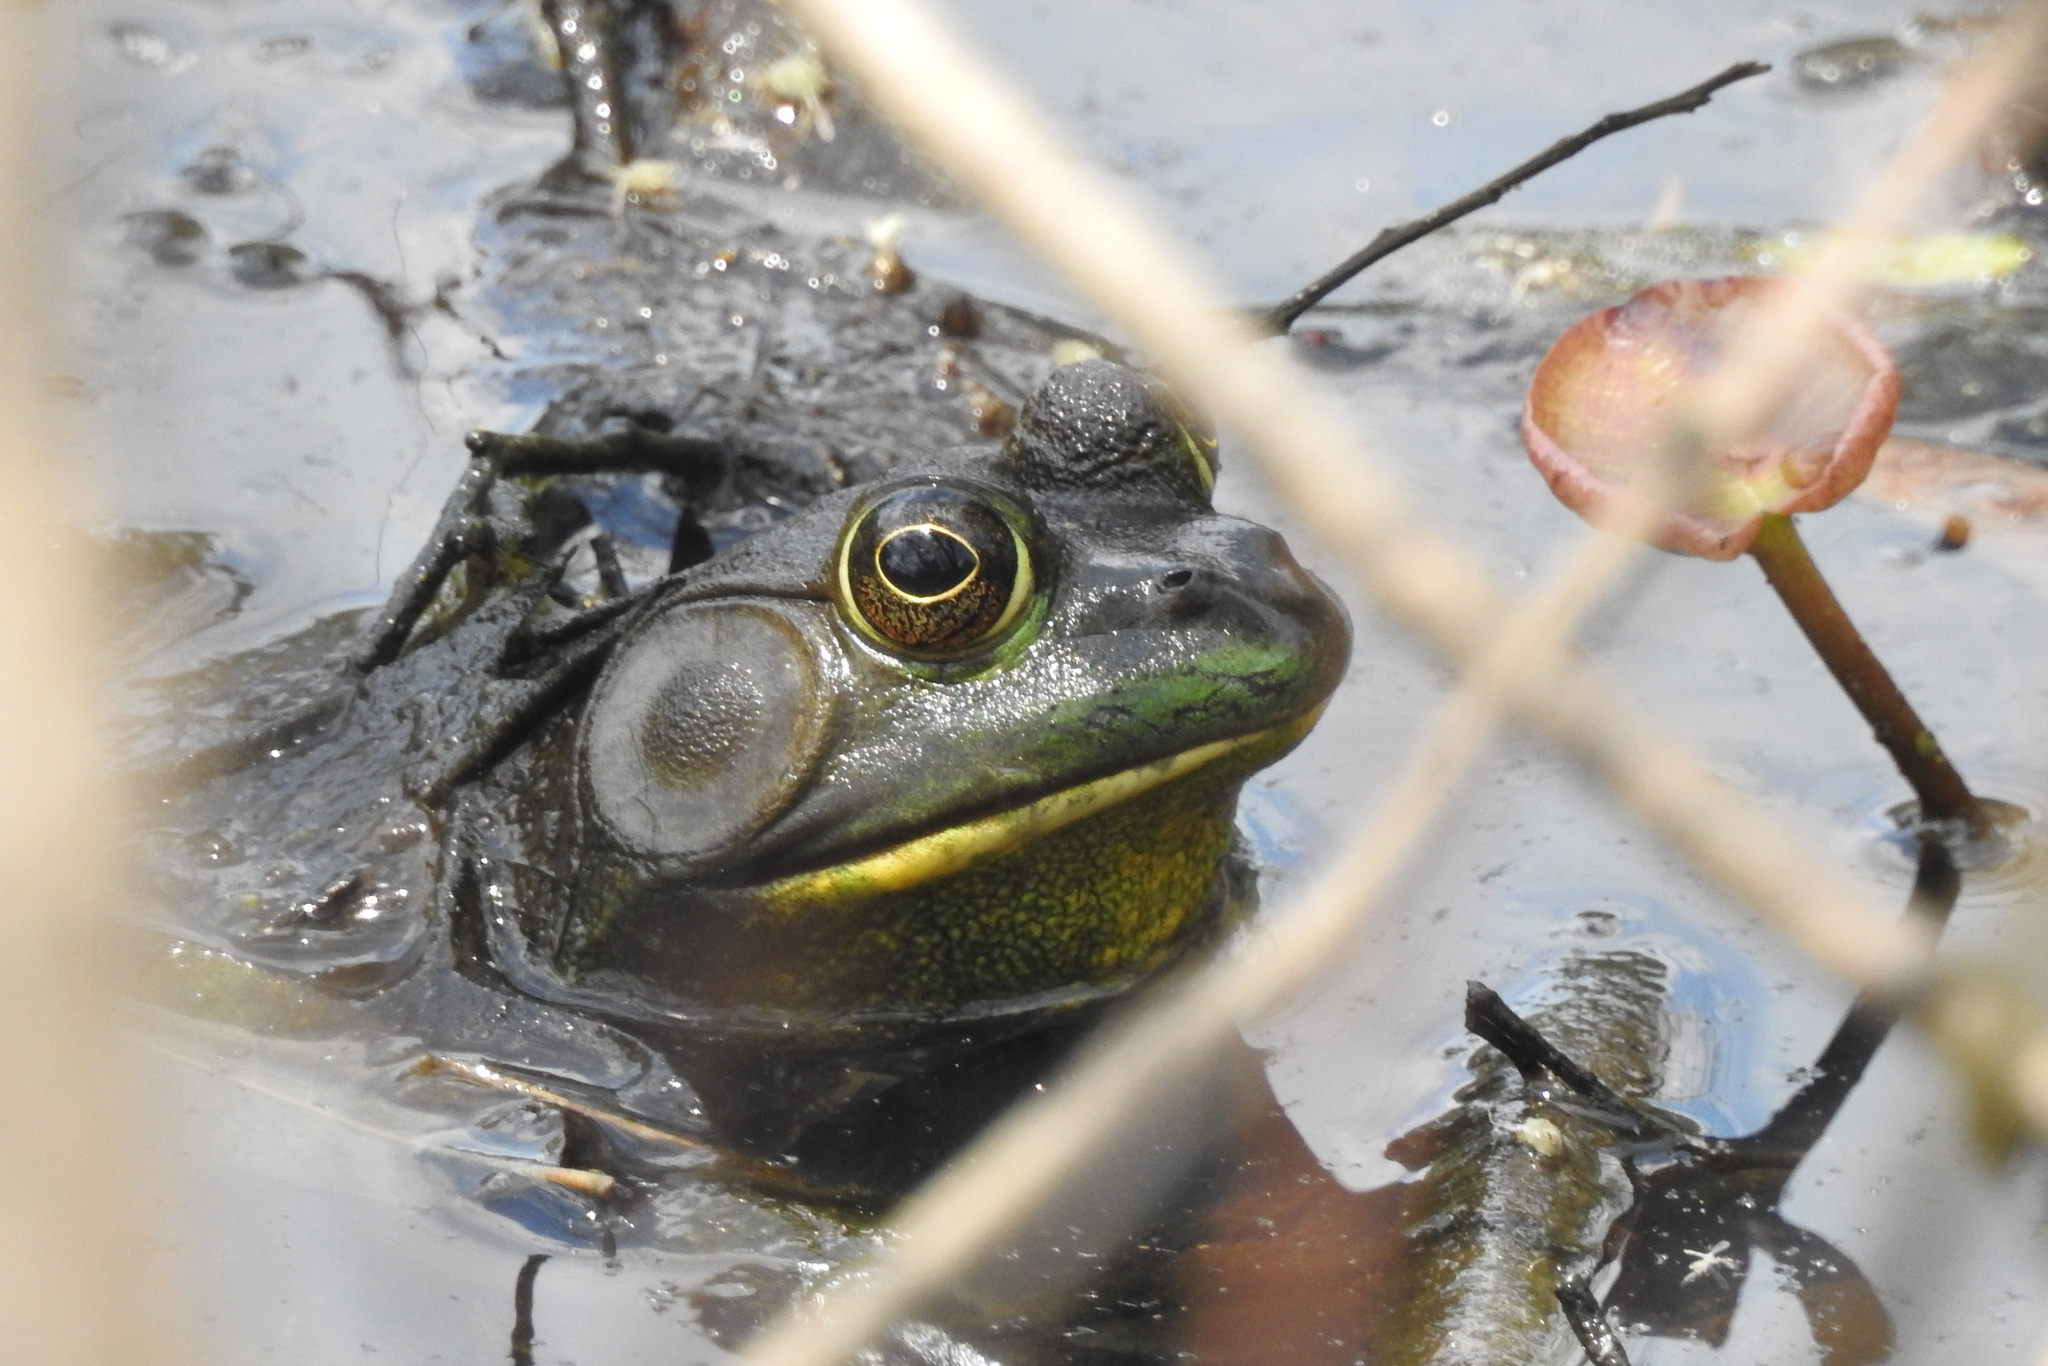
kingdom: Animalia
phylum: Chordata
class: Amphibia
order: Anura
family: Ranidae
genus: Lithobates
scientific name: Lithobates catesbeianus
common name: American bullfrog
